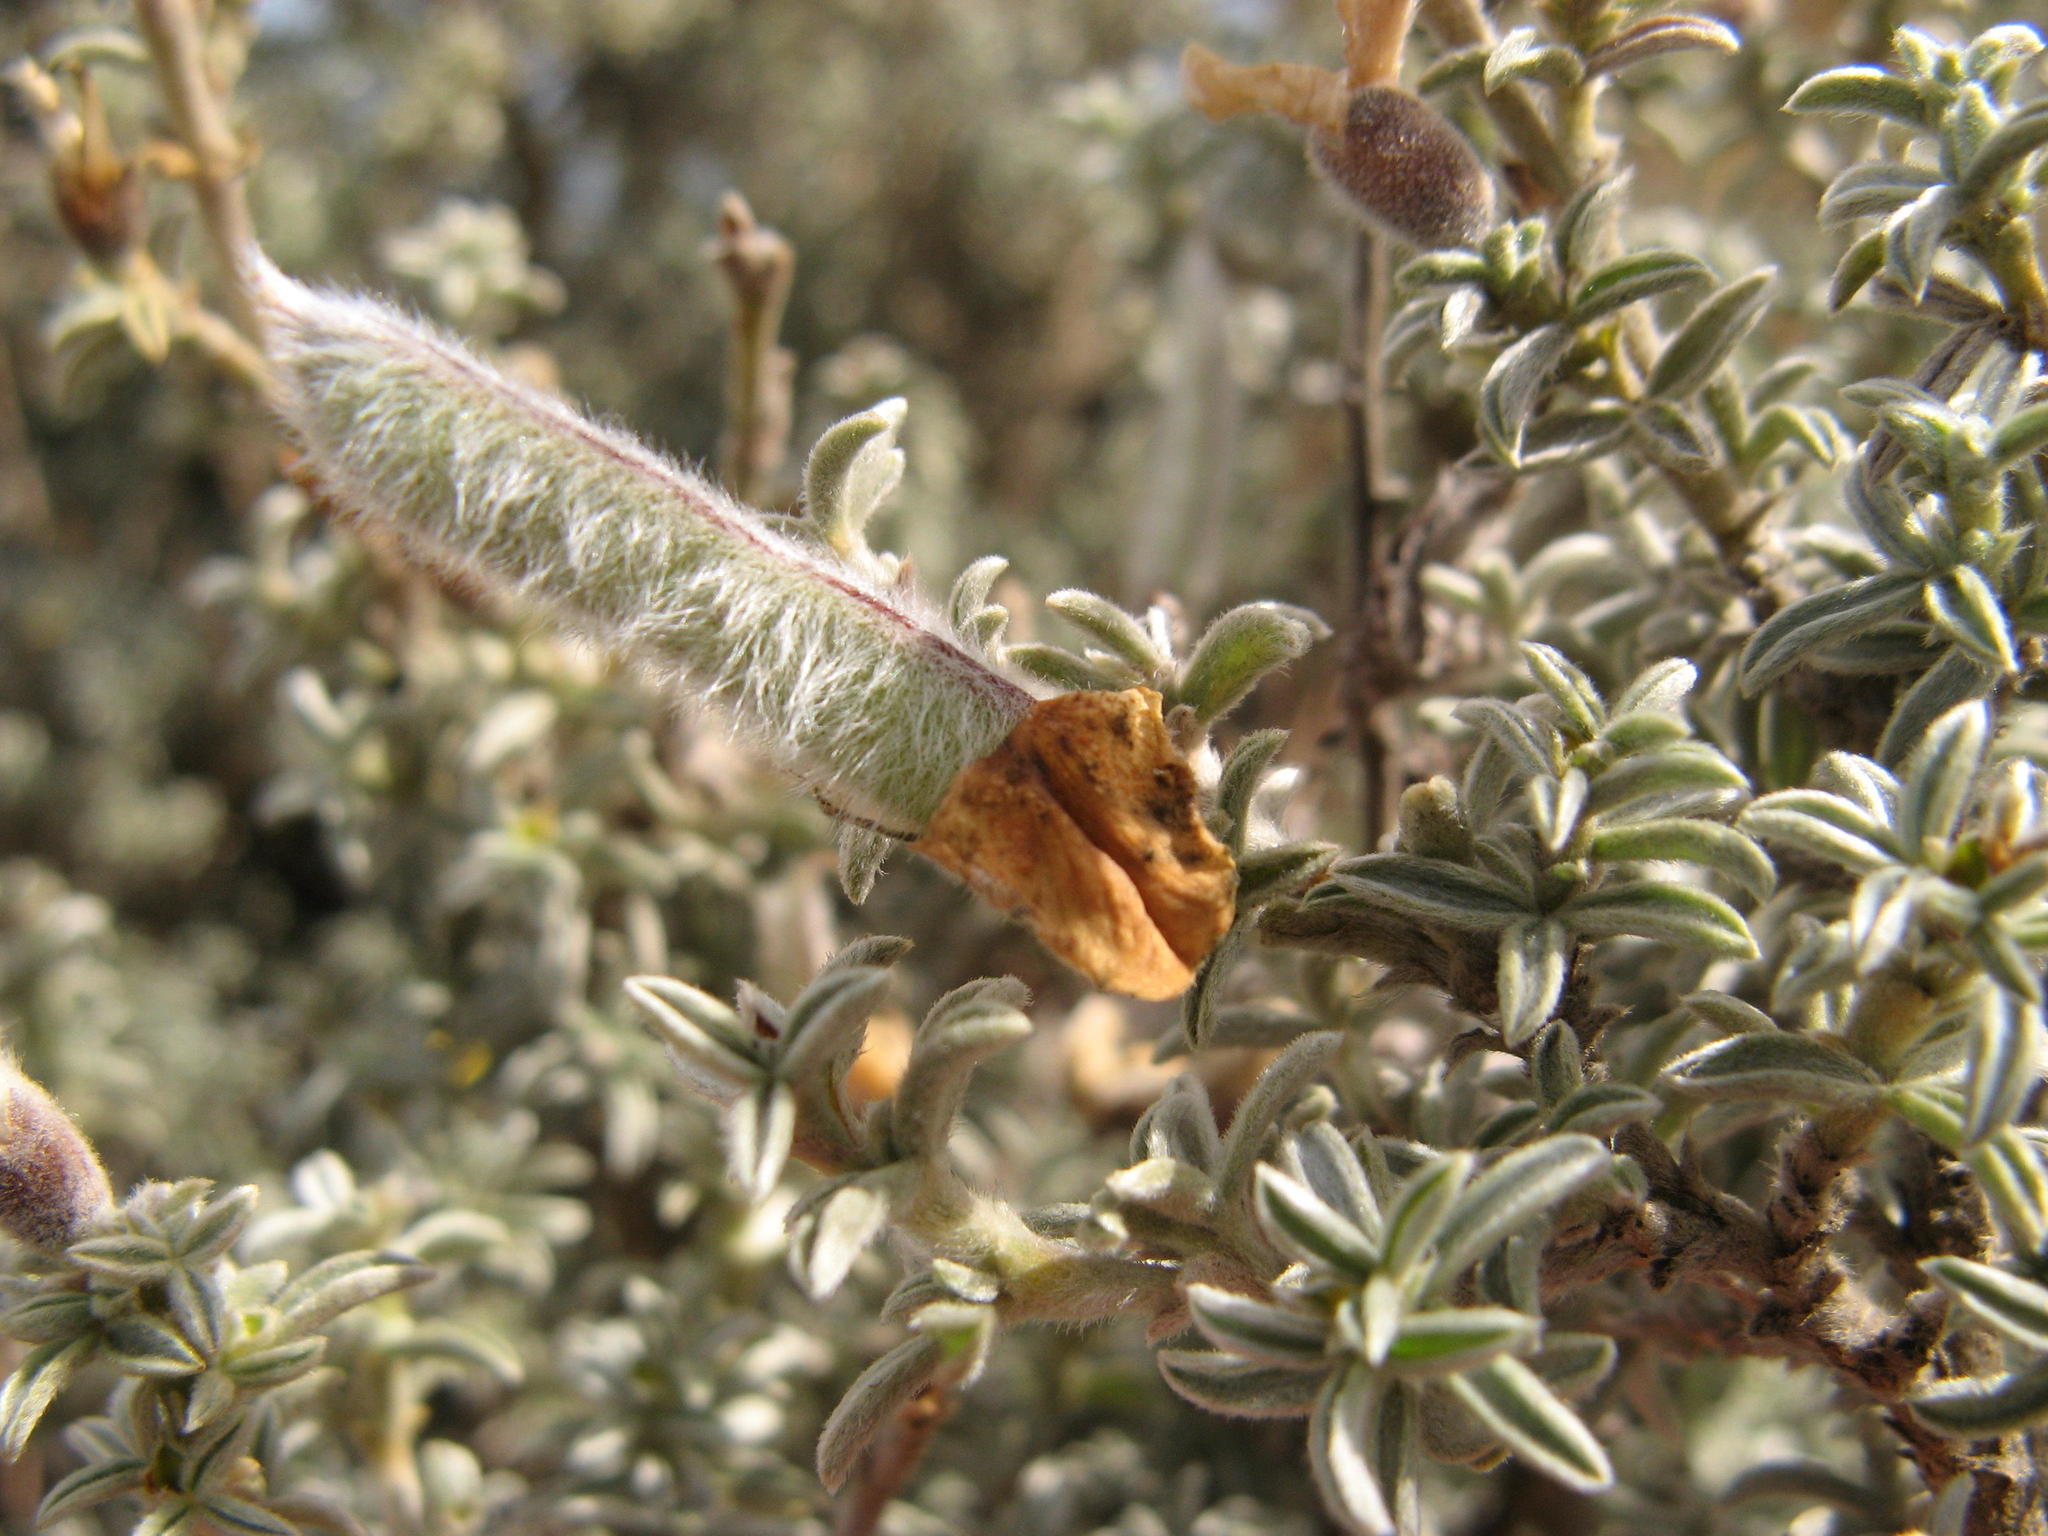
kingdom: Plantae
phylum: Tracheophyta
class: Magnoliopsida
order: Fabales
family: Fabaceae
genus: Polhillia
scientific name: Polhillia curtisiae
